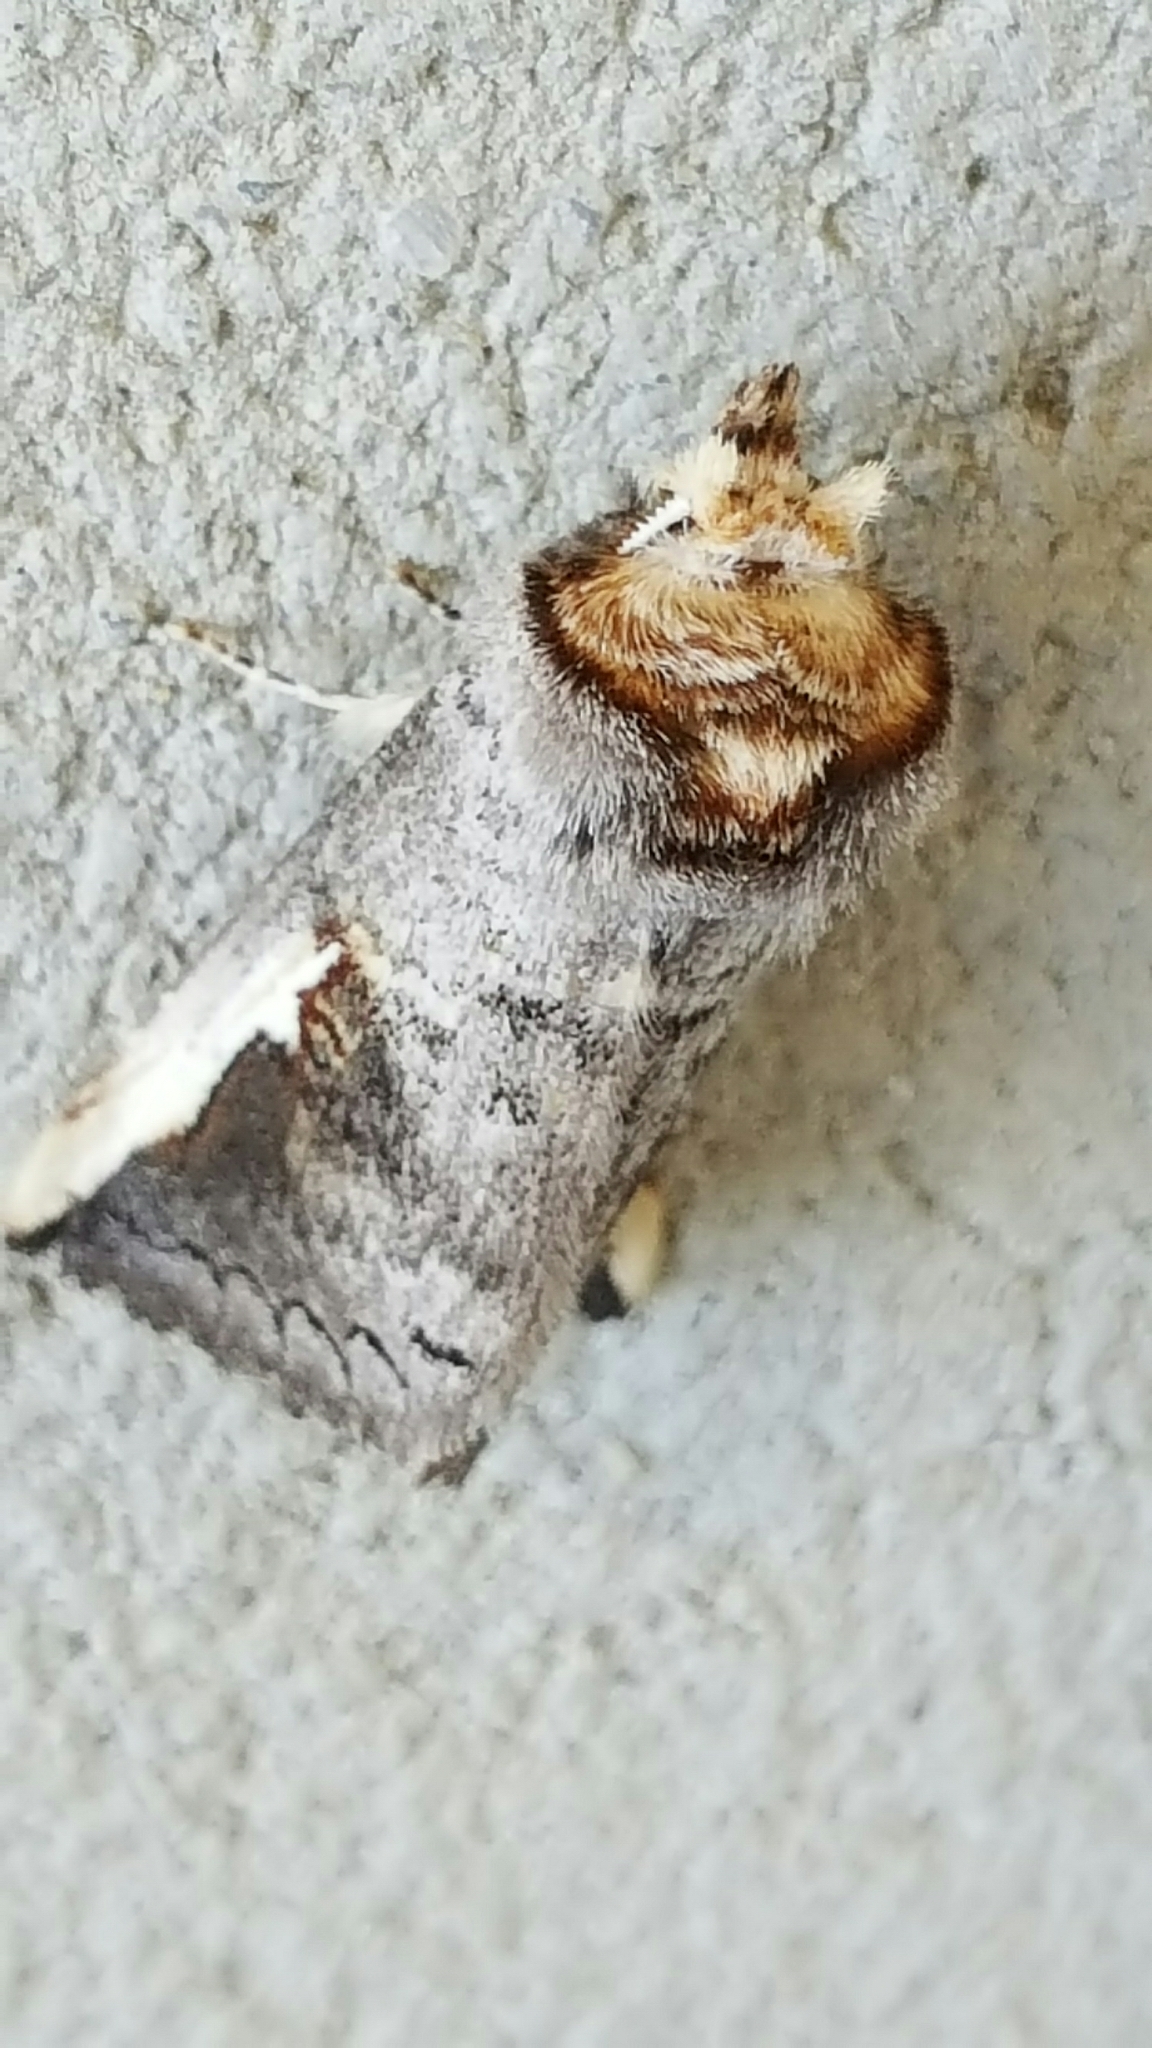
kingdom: Animalia
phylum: Arthropoda
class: Insecta
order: Lepidoptera
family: Notodontidae
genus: Symmerista
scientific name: Symmerista
